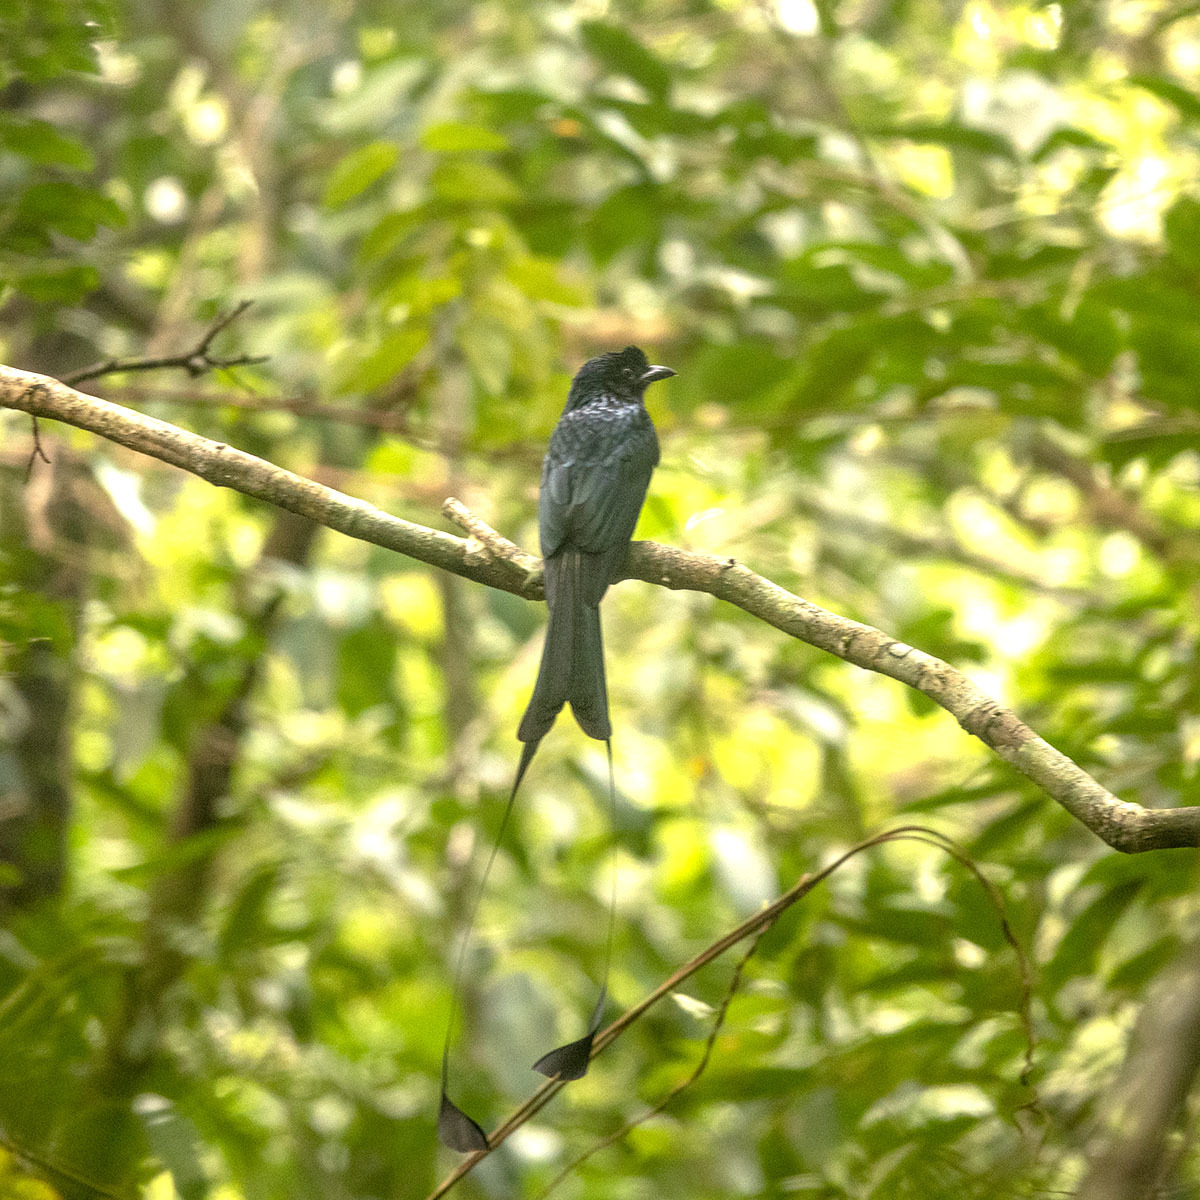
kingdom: Animalia
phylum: Chordata
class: Aves
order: Passeriformes
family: Dicruridae
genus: Dicrurus
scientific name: Dicrurus paradiseus
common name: Greater racket-tailed drongo
